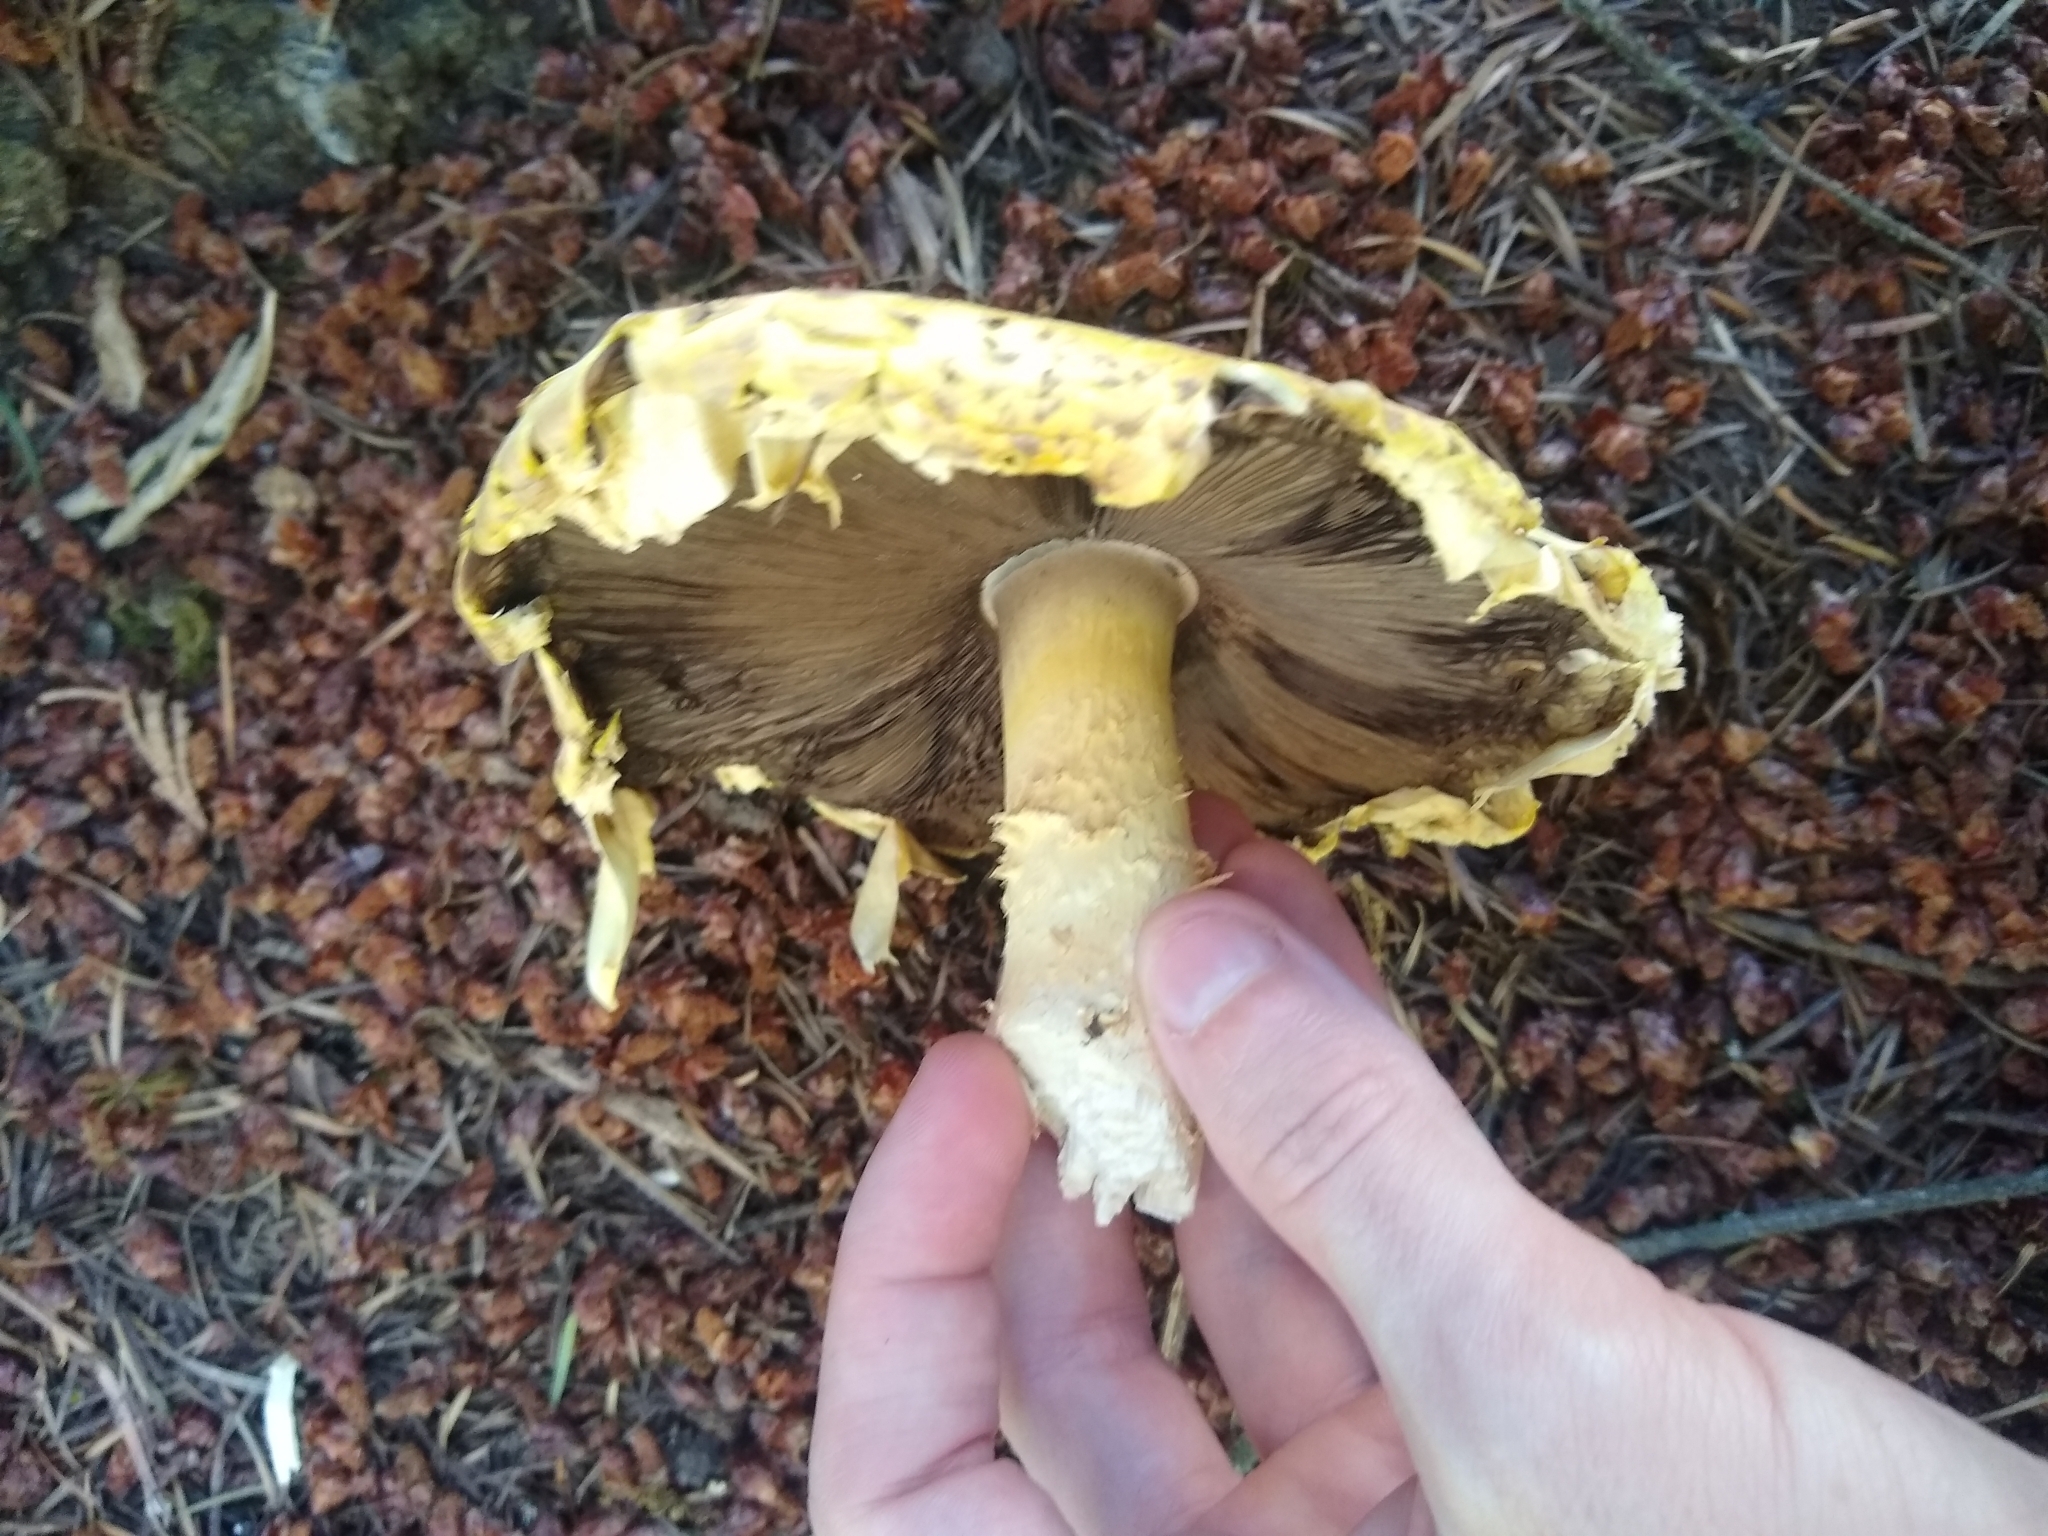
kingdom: Fungi
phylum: Basidiomycota
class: Agaricomycetes
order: Agaricales
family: Agaricaceae
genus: Agaricus
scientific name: Agaricus augustus
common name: Prince
